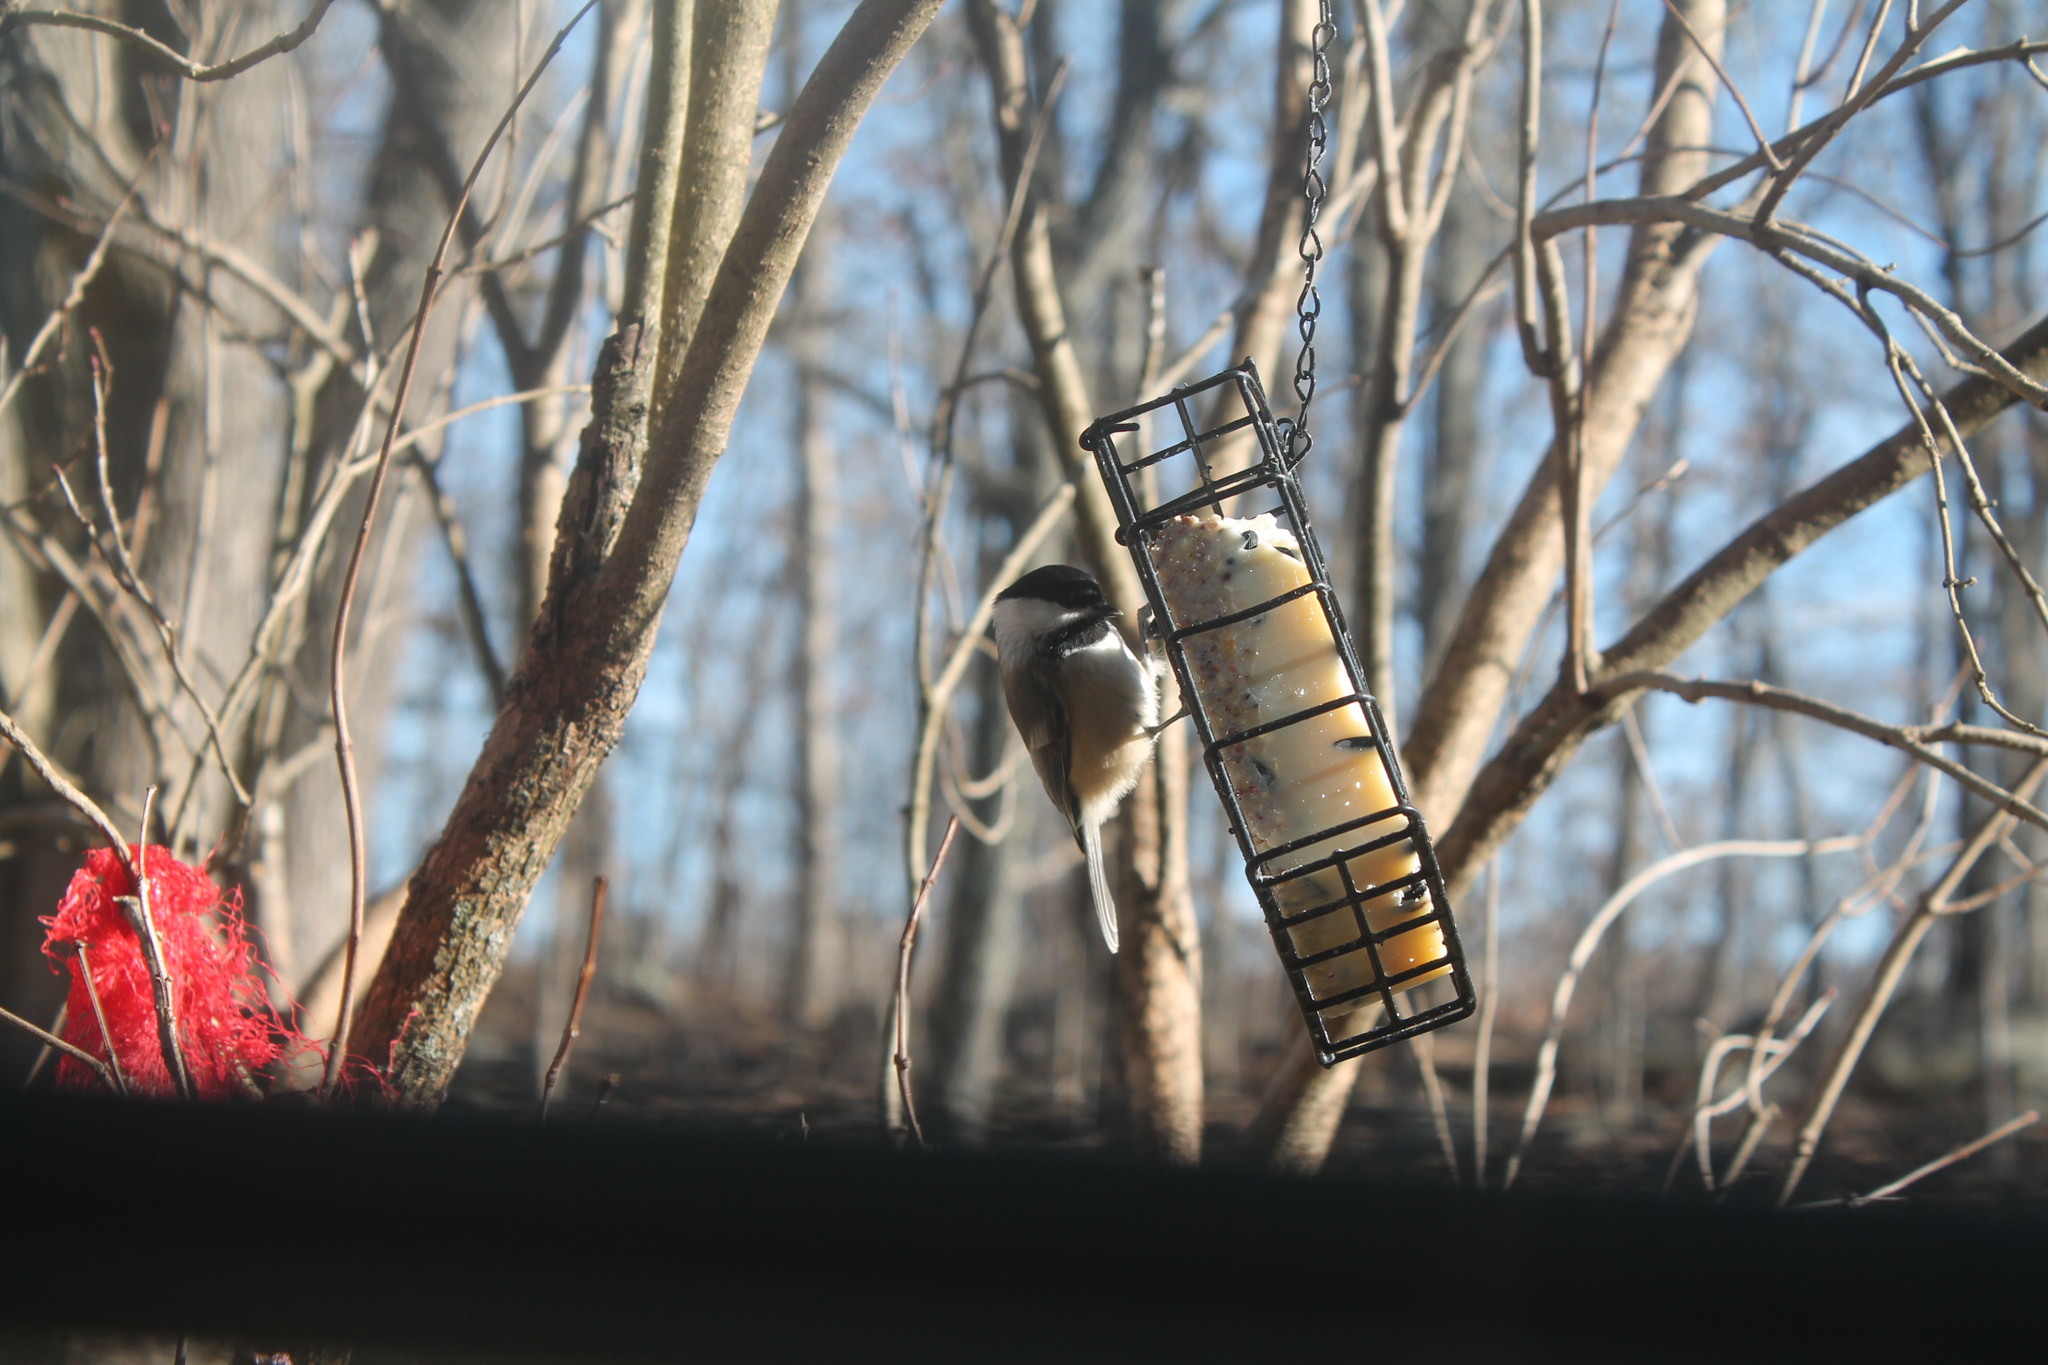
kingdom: Animalia
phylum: Chordata
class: Aves
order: Passeriformes
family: Paridae
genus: Poecile
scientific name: Poecile atricapillus
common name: Black-capped chickadee
